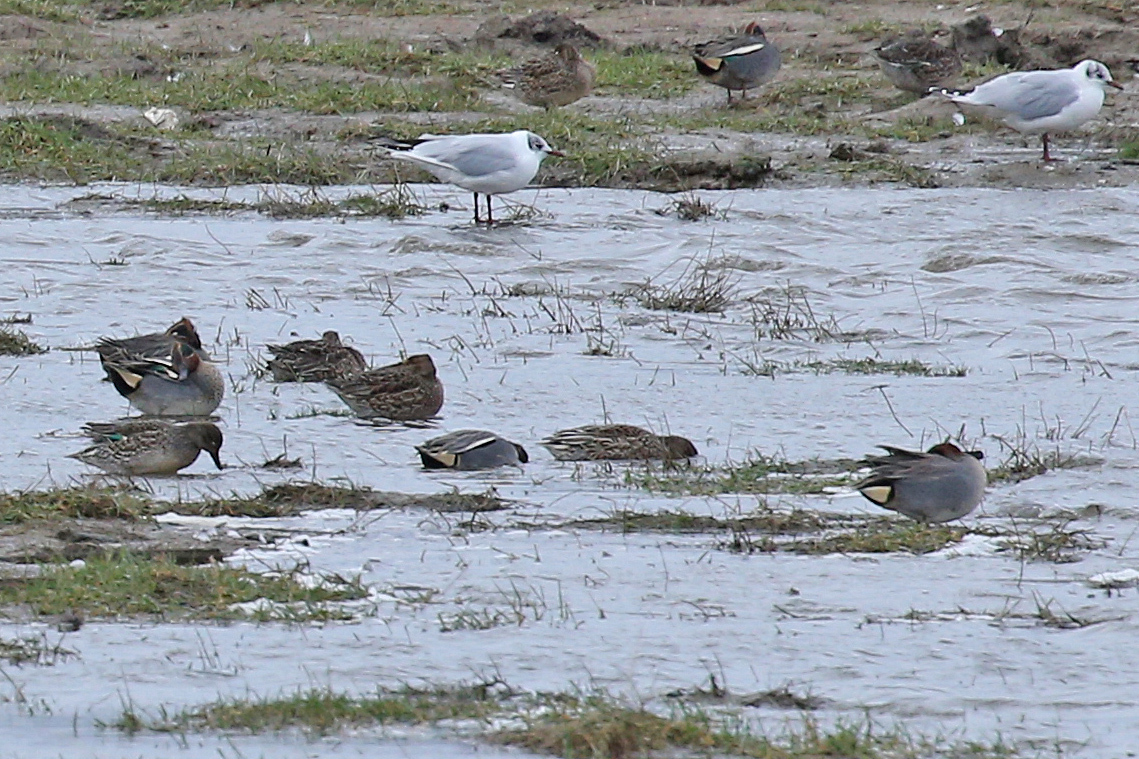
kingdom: Animalia
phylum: Chordata
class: Aves
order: Anseriformes
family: Anatidae
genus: Anas
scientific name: Anas crecca
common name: Eurasian teal
